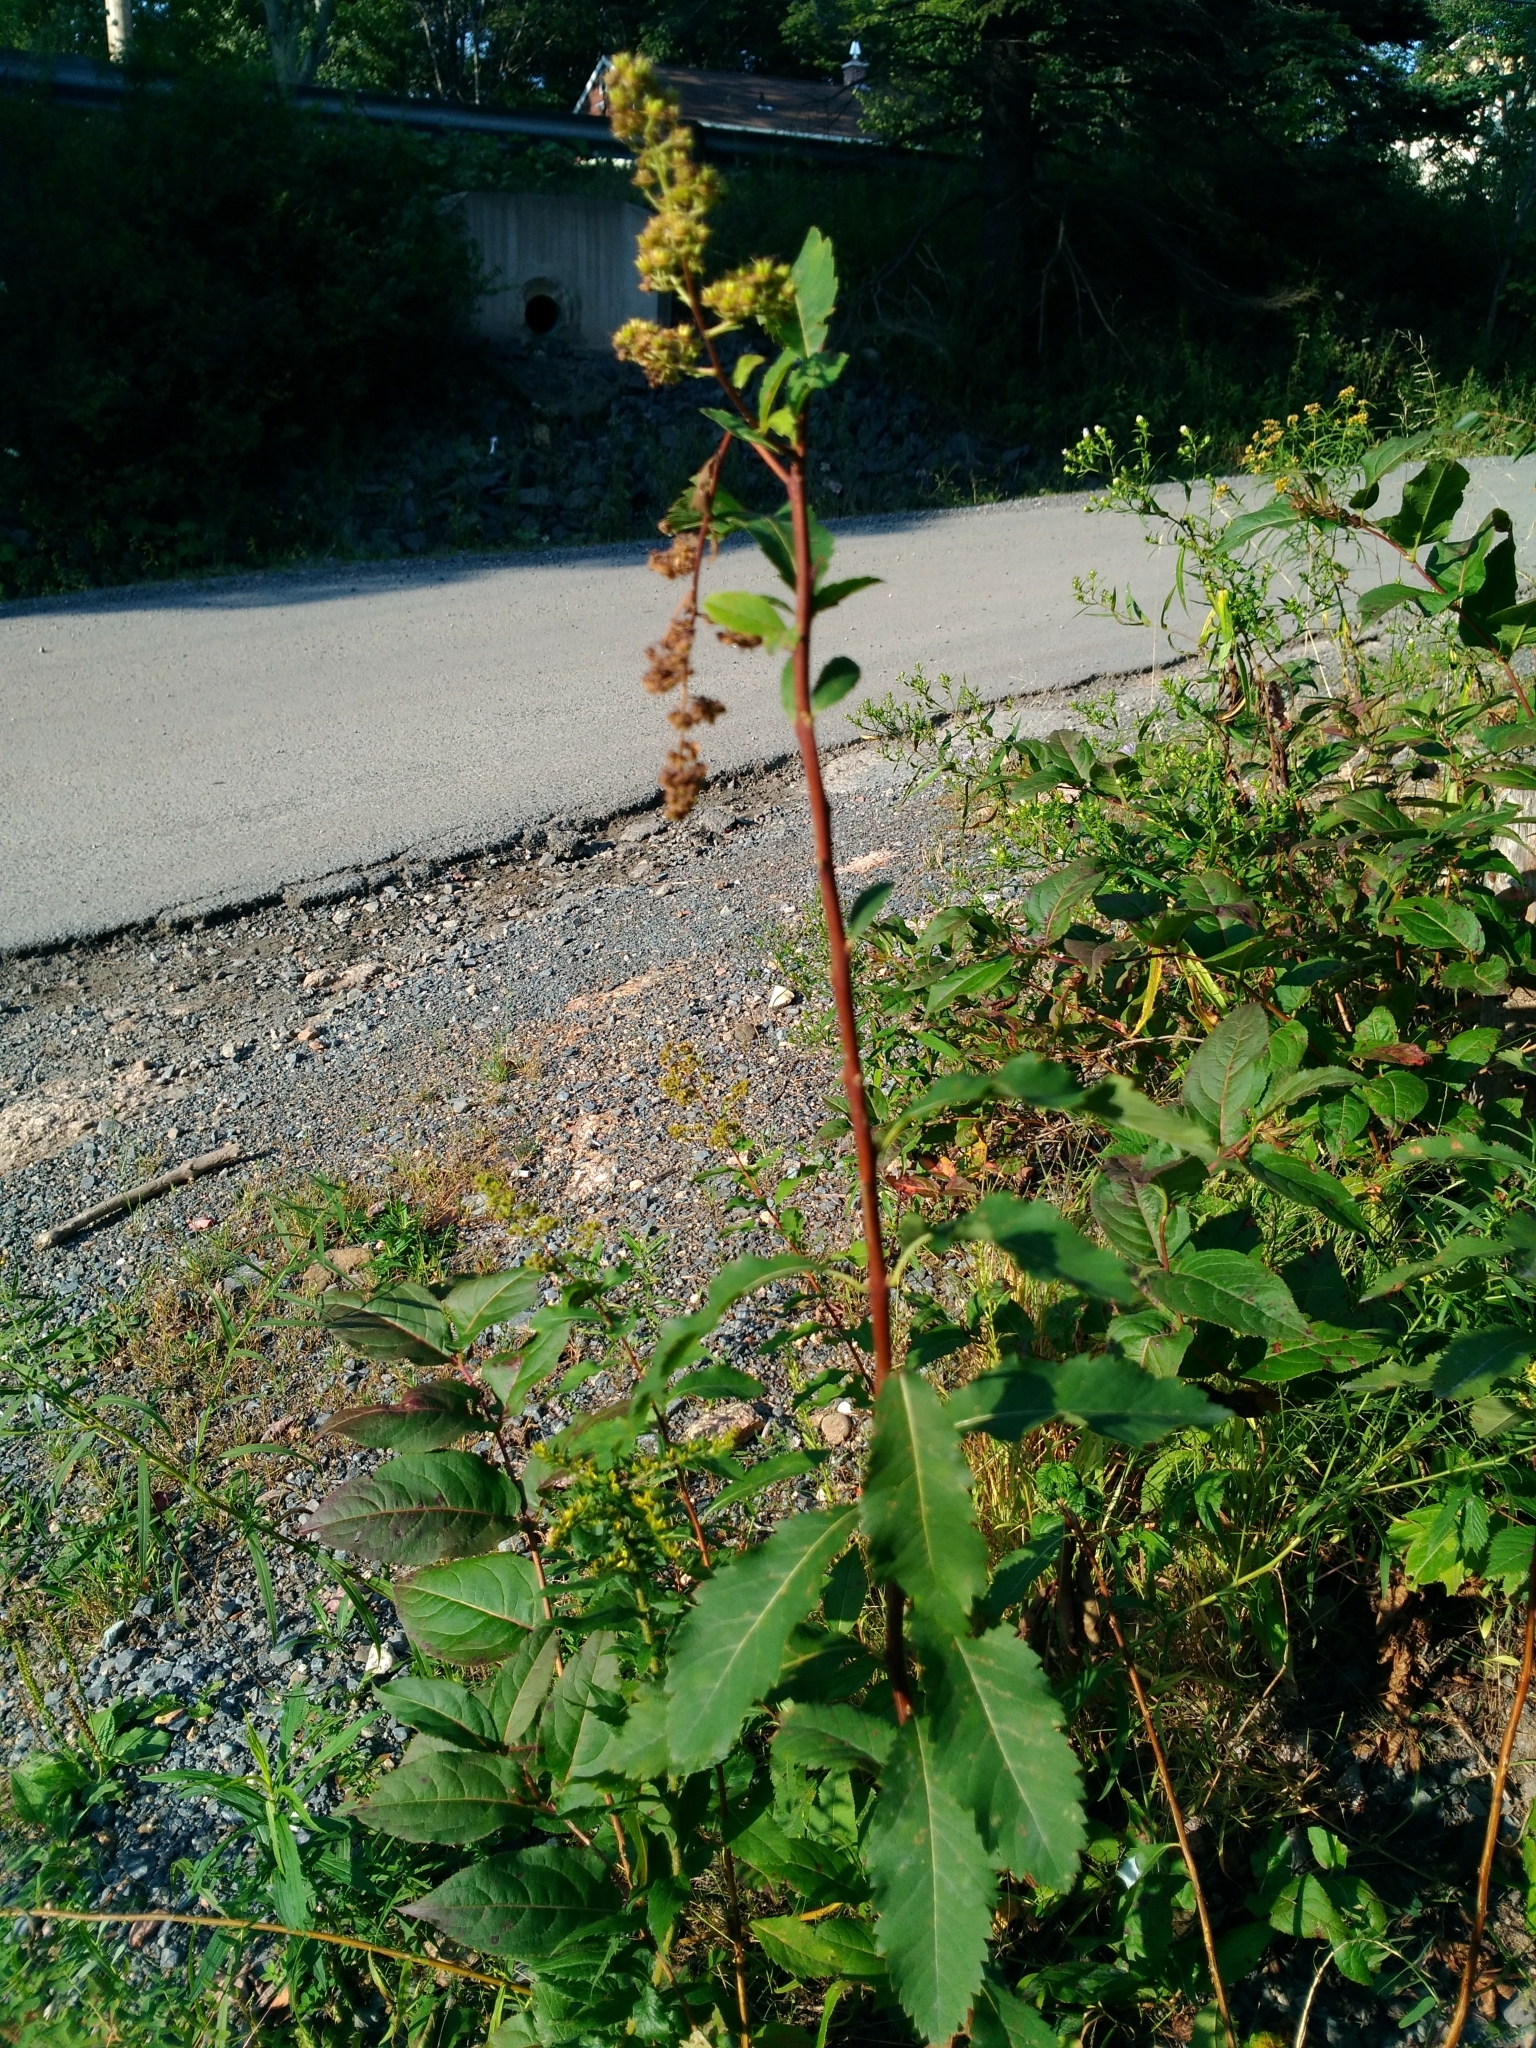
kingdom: Plantae
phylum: Tracheophyta
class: Magnoliopsida
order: Rosales
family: Rosaceae
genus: Spiraea
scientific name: Spiraea alba
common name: Pale bridewort
